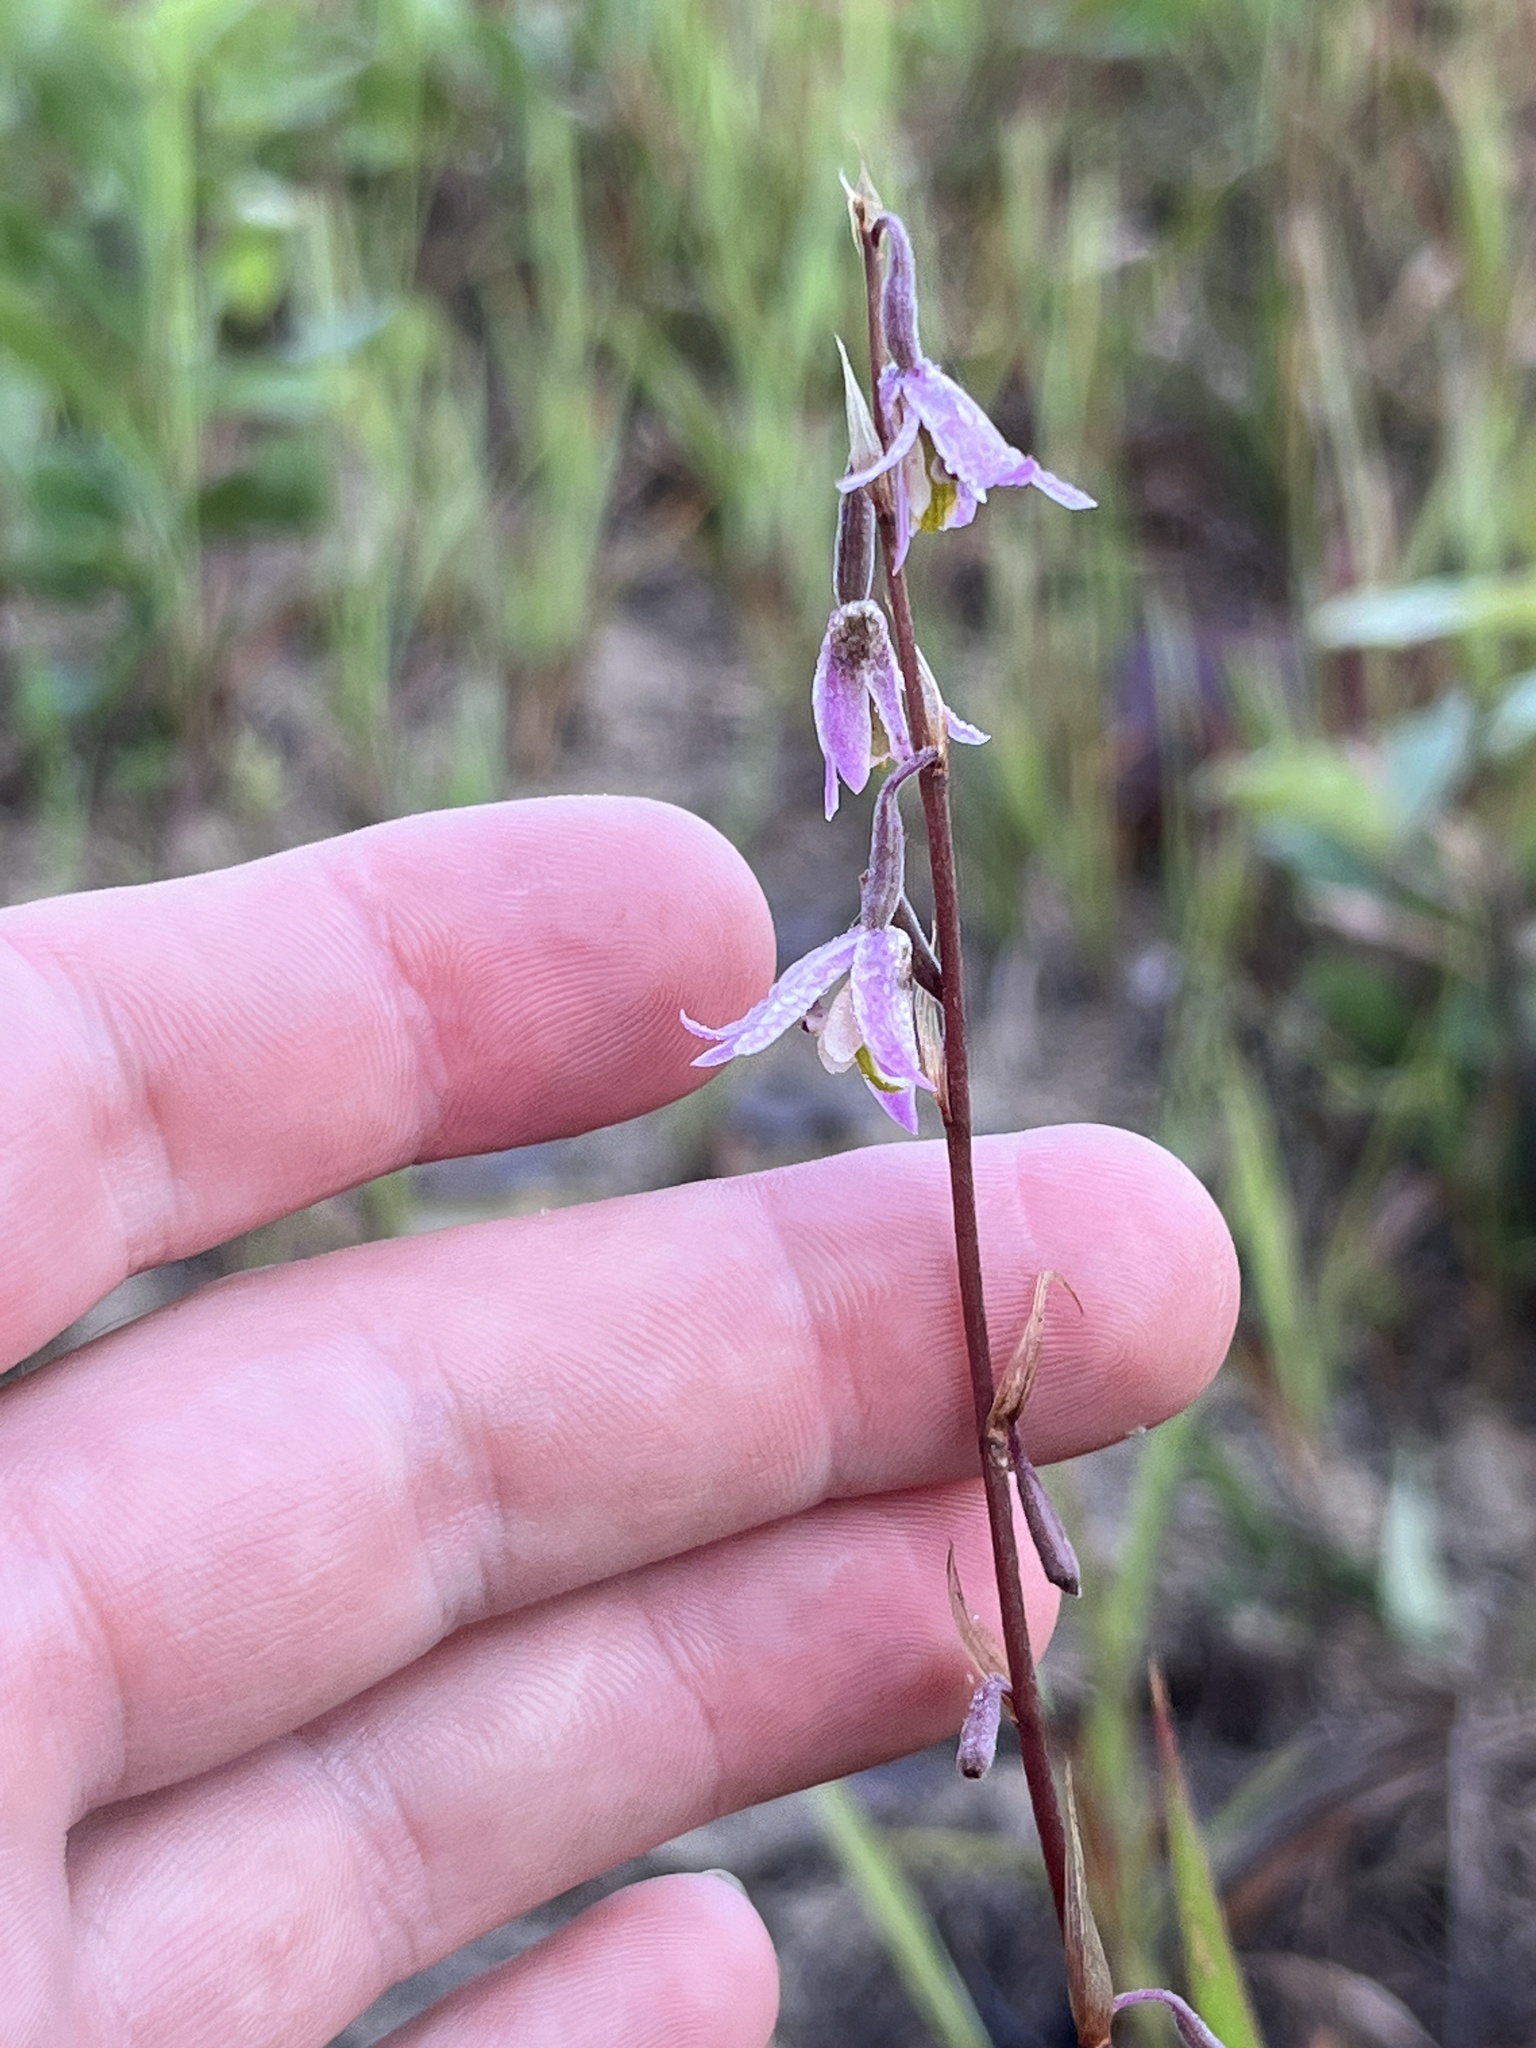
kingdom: Plantae
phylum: Tracheophyta
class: Liliopsida
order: Asparagales
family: Orchidaceae
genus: Pachystoma
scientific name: Pachystoma pubescens
